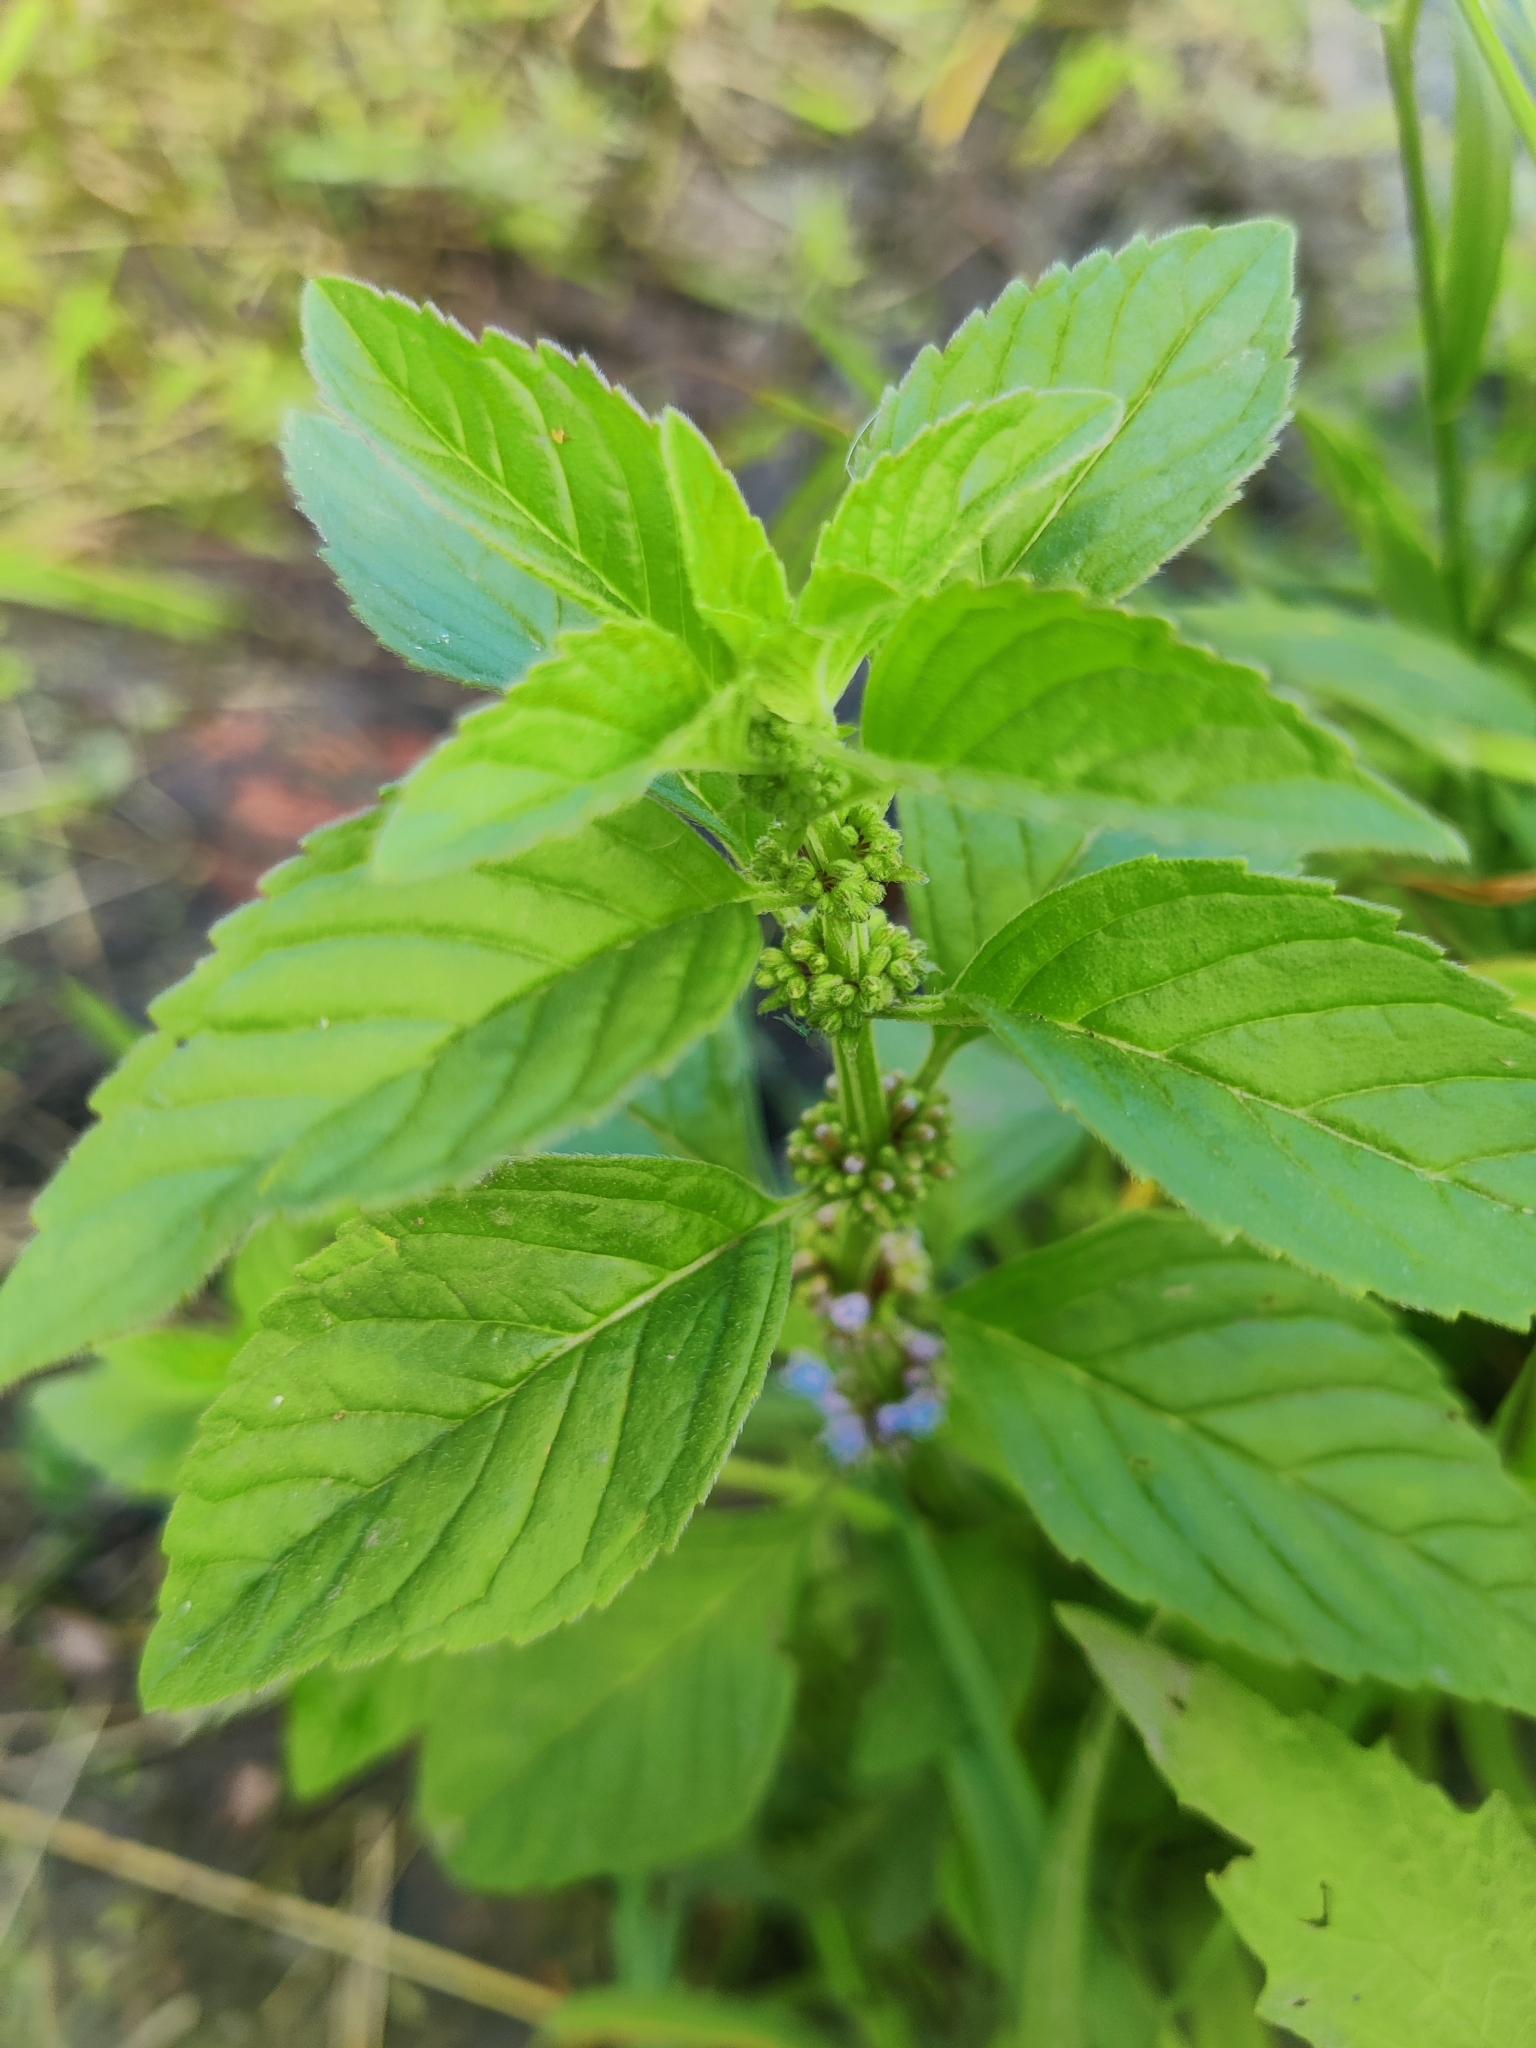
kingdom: Plantae
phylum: Tracheophyta
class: Magnoliopsida
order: Lamiales
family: Lamiaceae
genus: Mentha
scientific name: Mentha arvensis
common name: Corn mint
